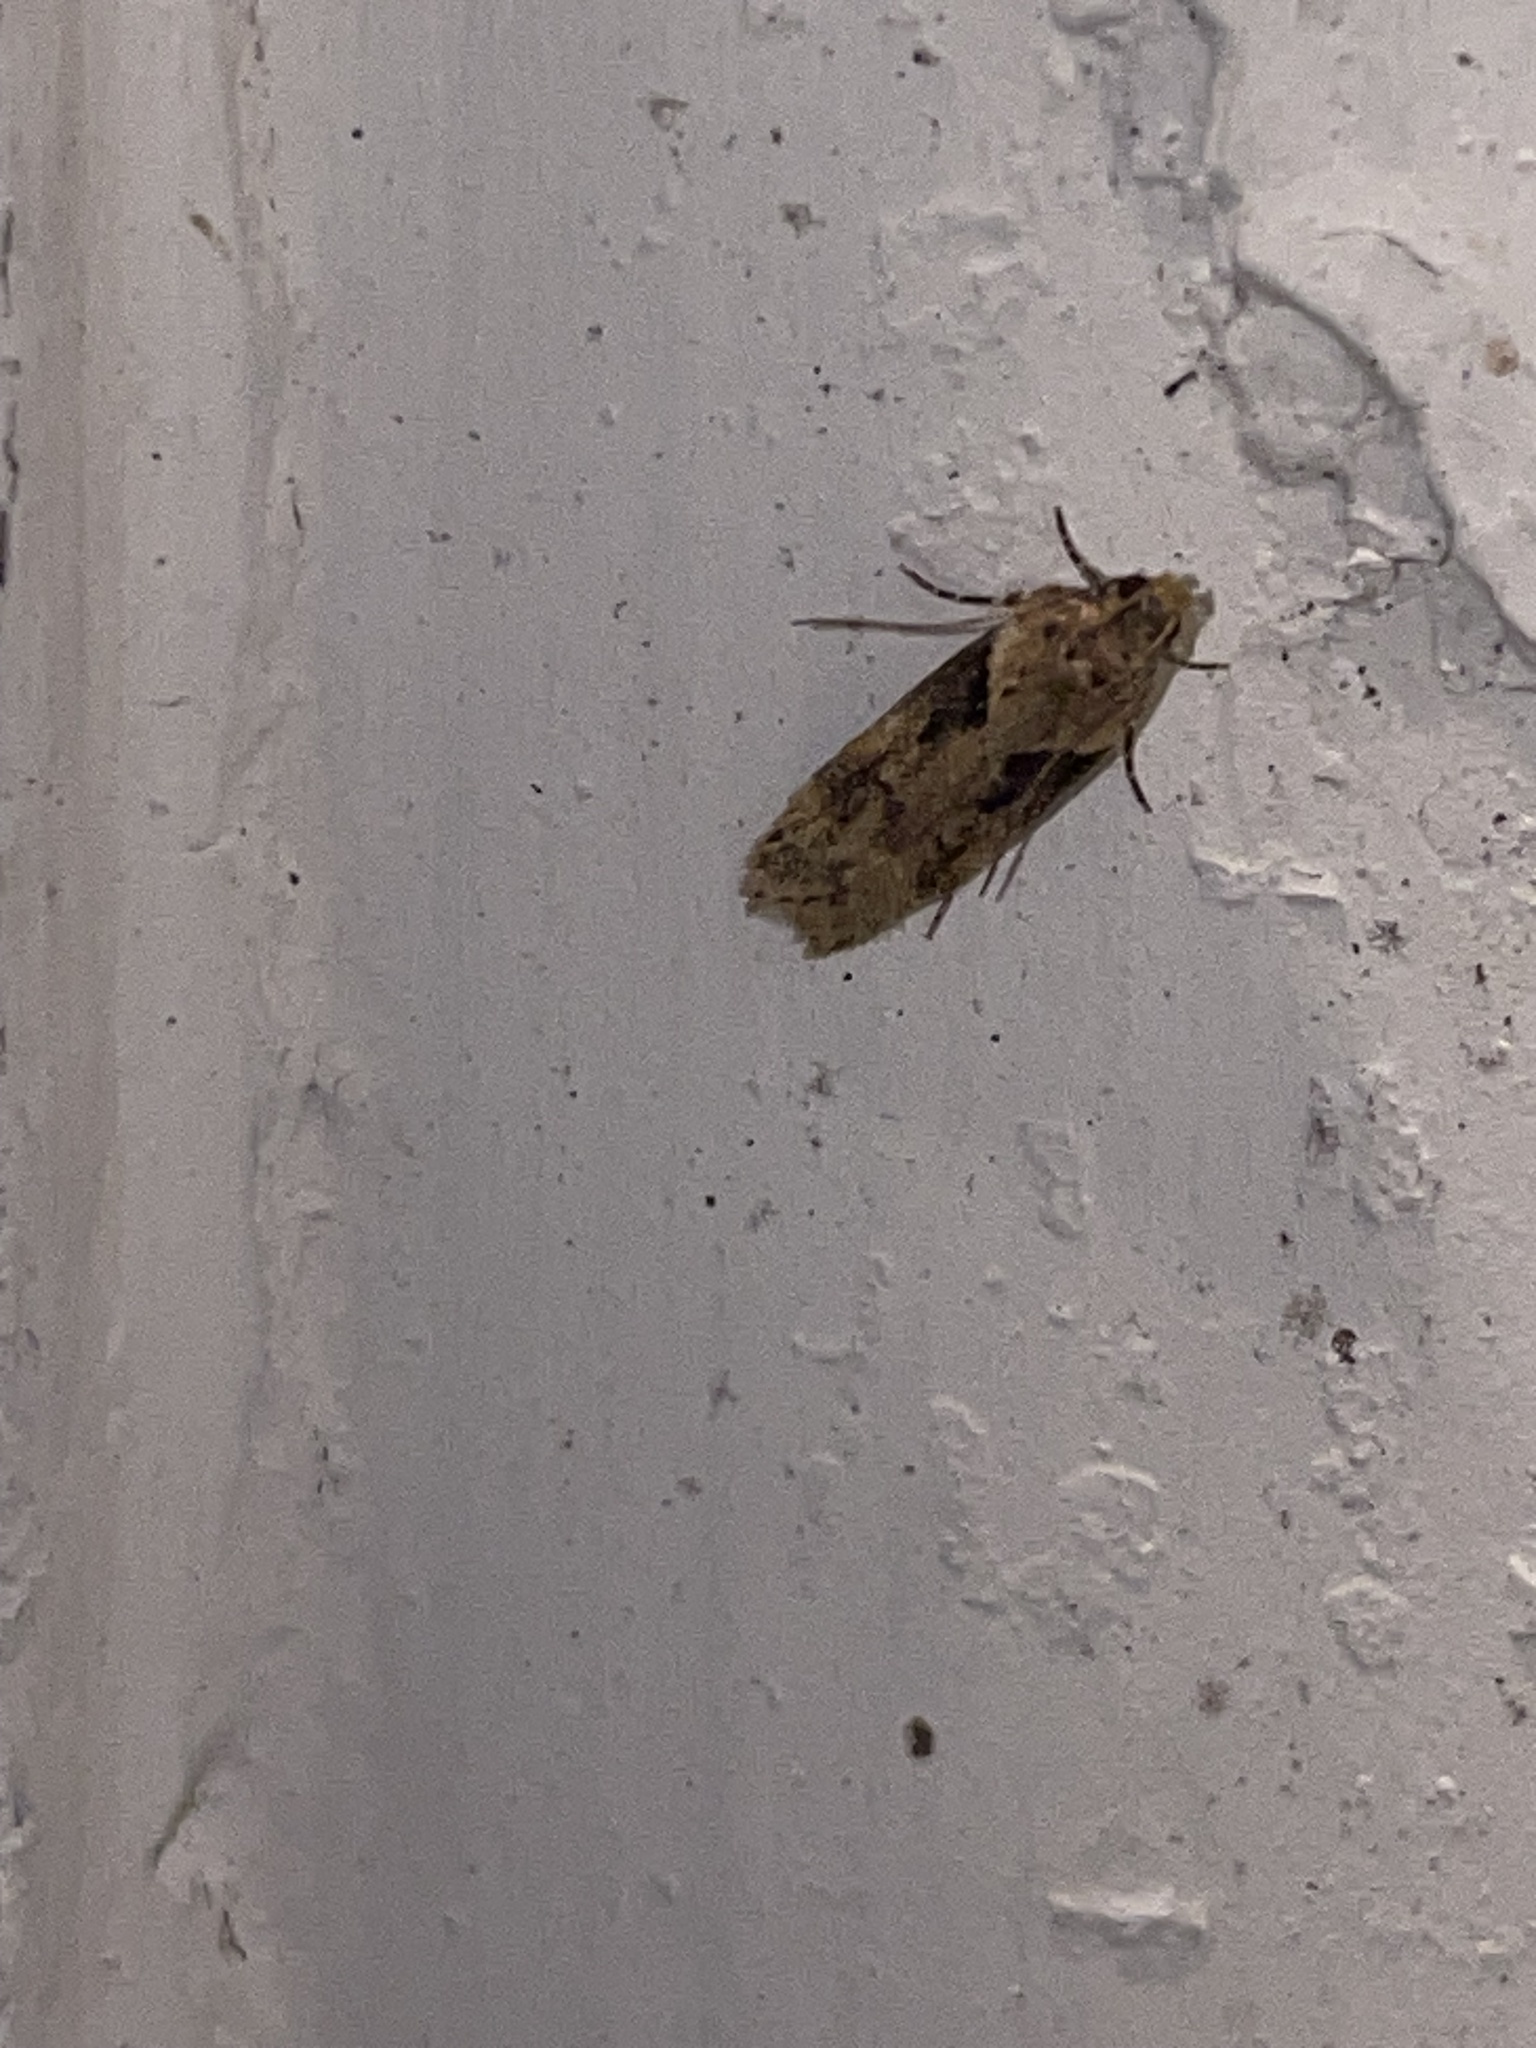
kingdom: Animalia
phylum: Arthropoda
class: Insecta
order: Lepidoptera
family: Gelechiidae
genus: Chionodes
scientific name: Chionodes mediofuscella
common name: Black-smudged chionodes moth
